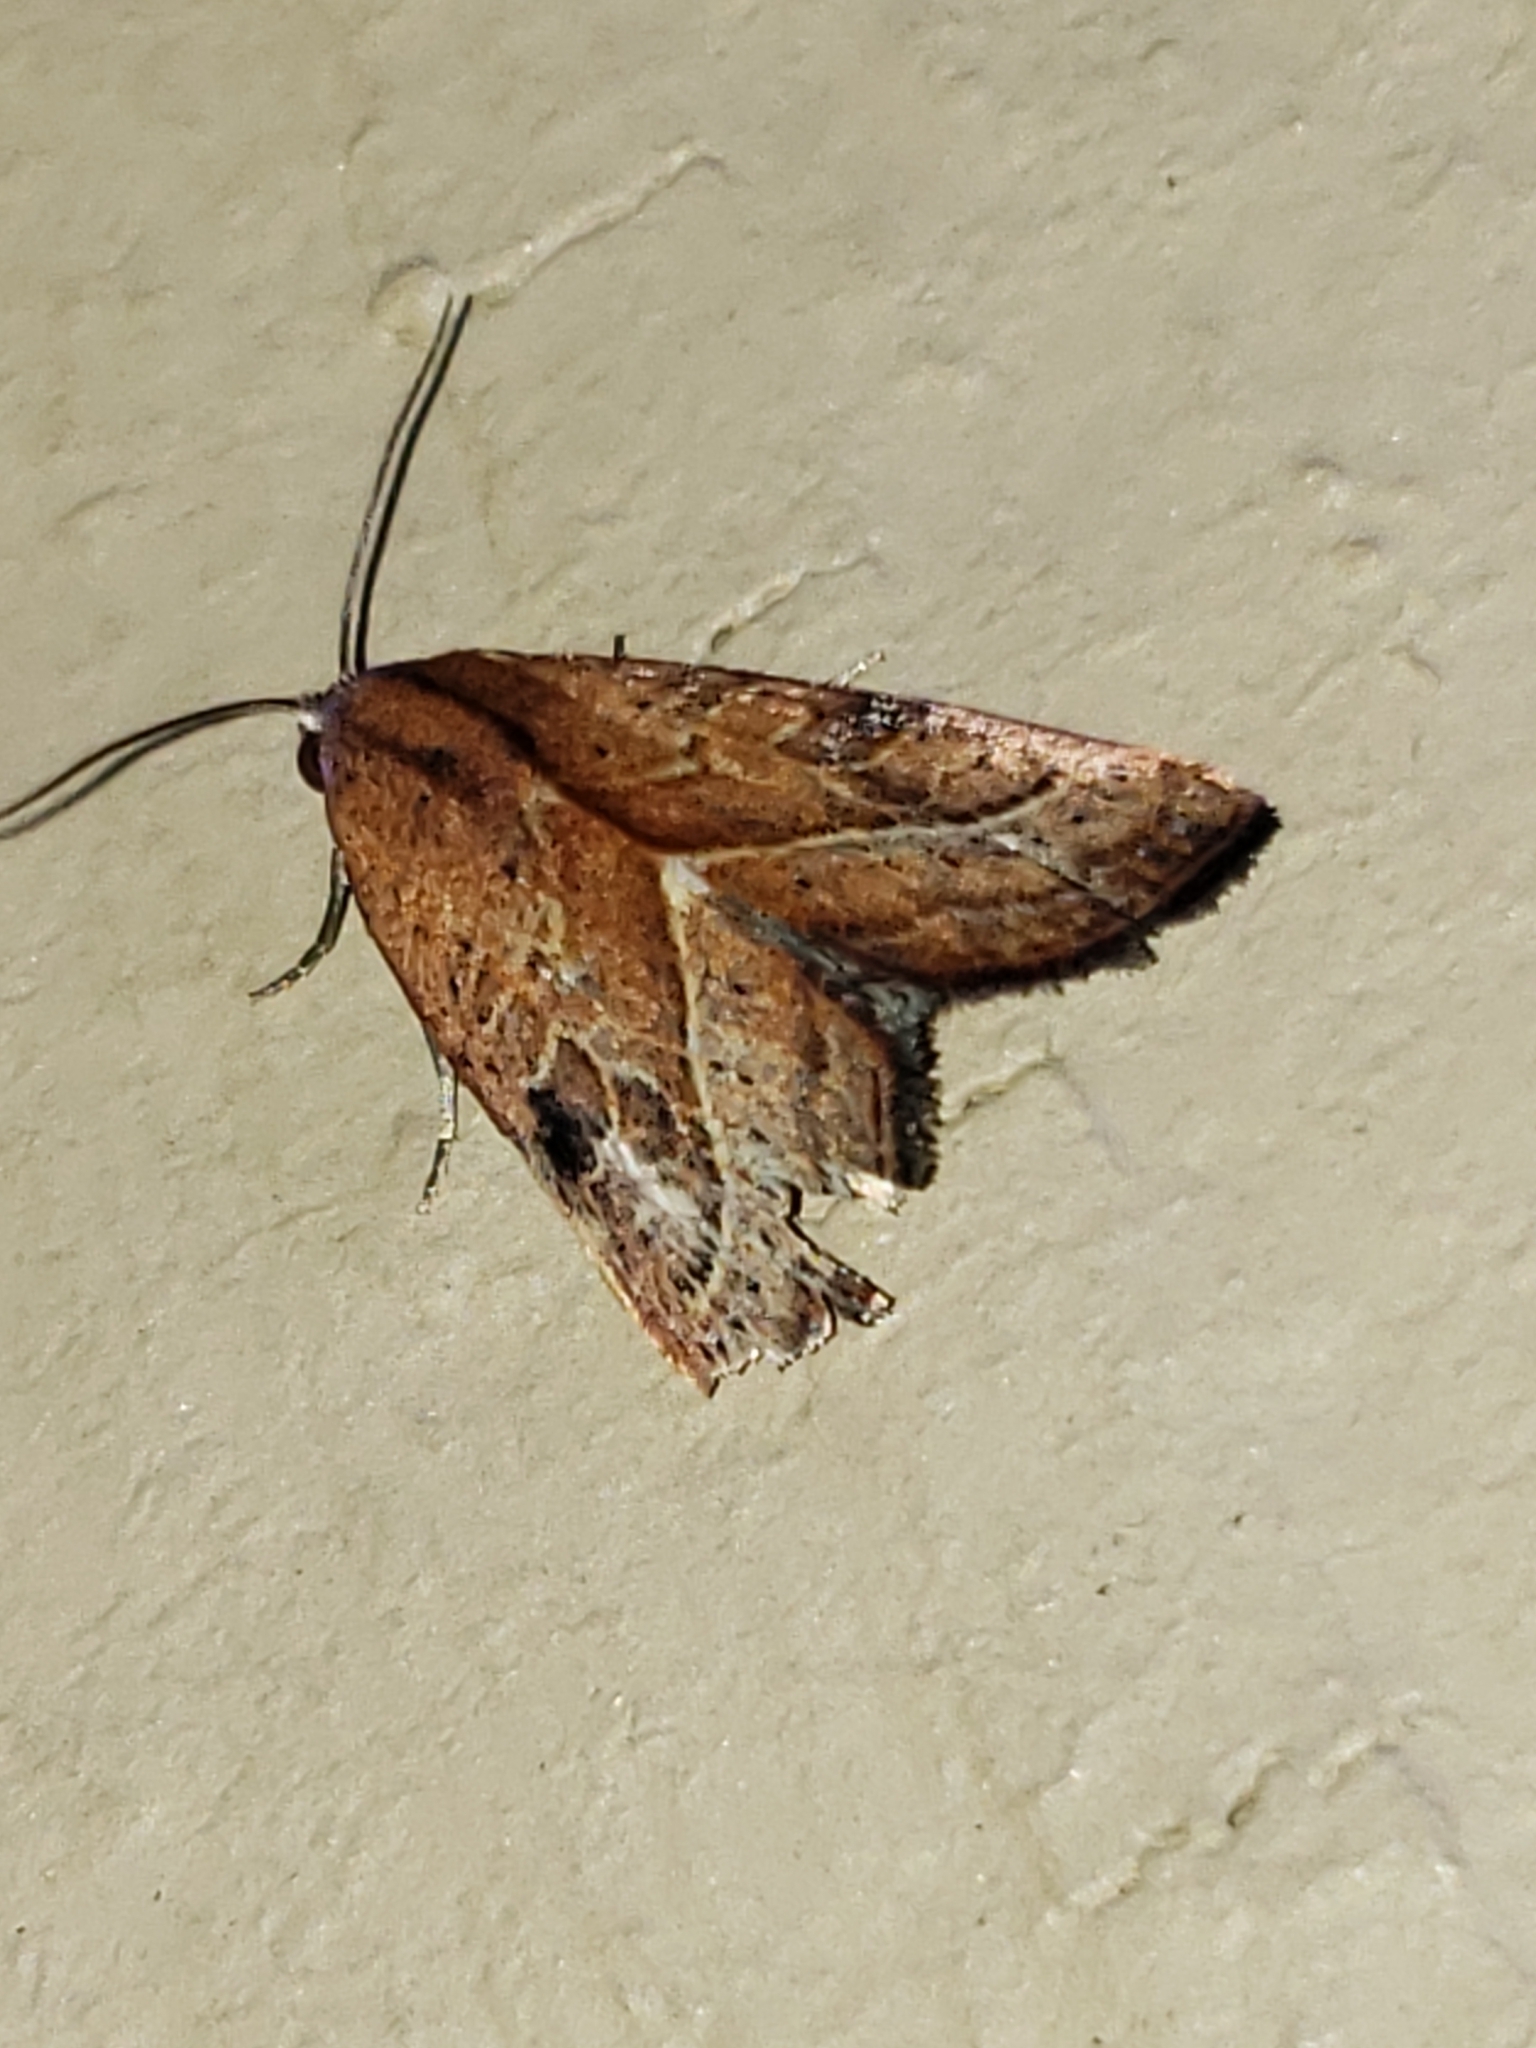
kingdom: Animalia
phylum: Arthropoda
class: Insecta
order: Lepidoptera
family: Noctuidae
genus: Galgula
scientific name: Galgula partita
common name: Wedgeling
